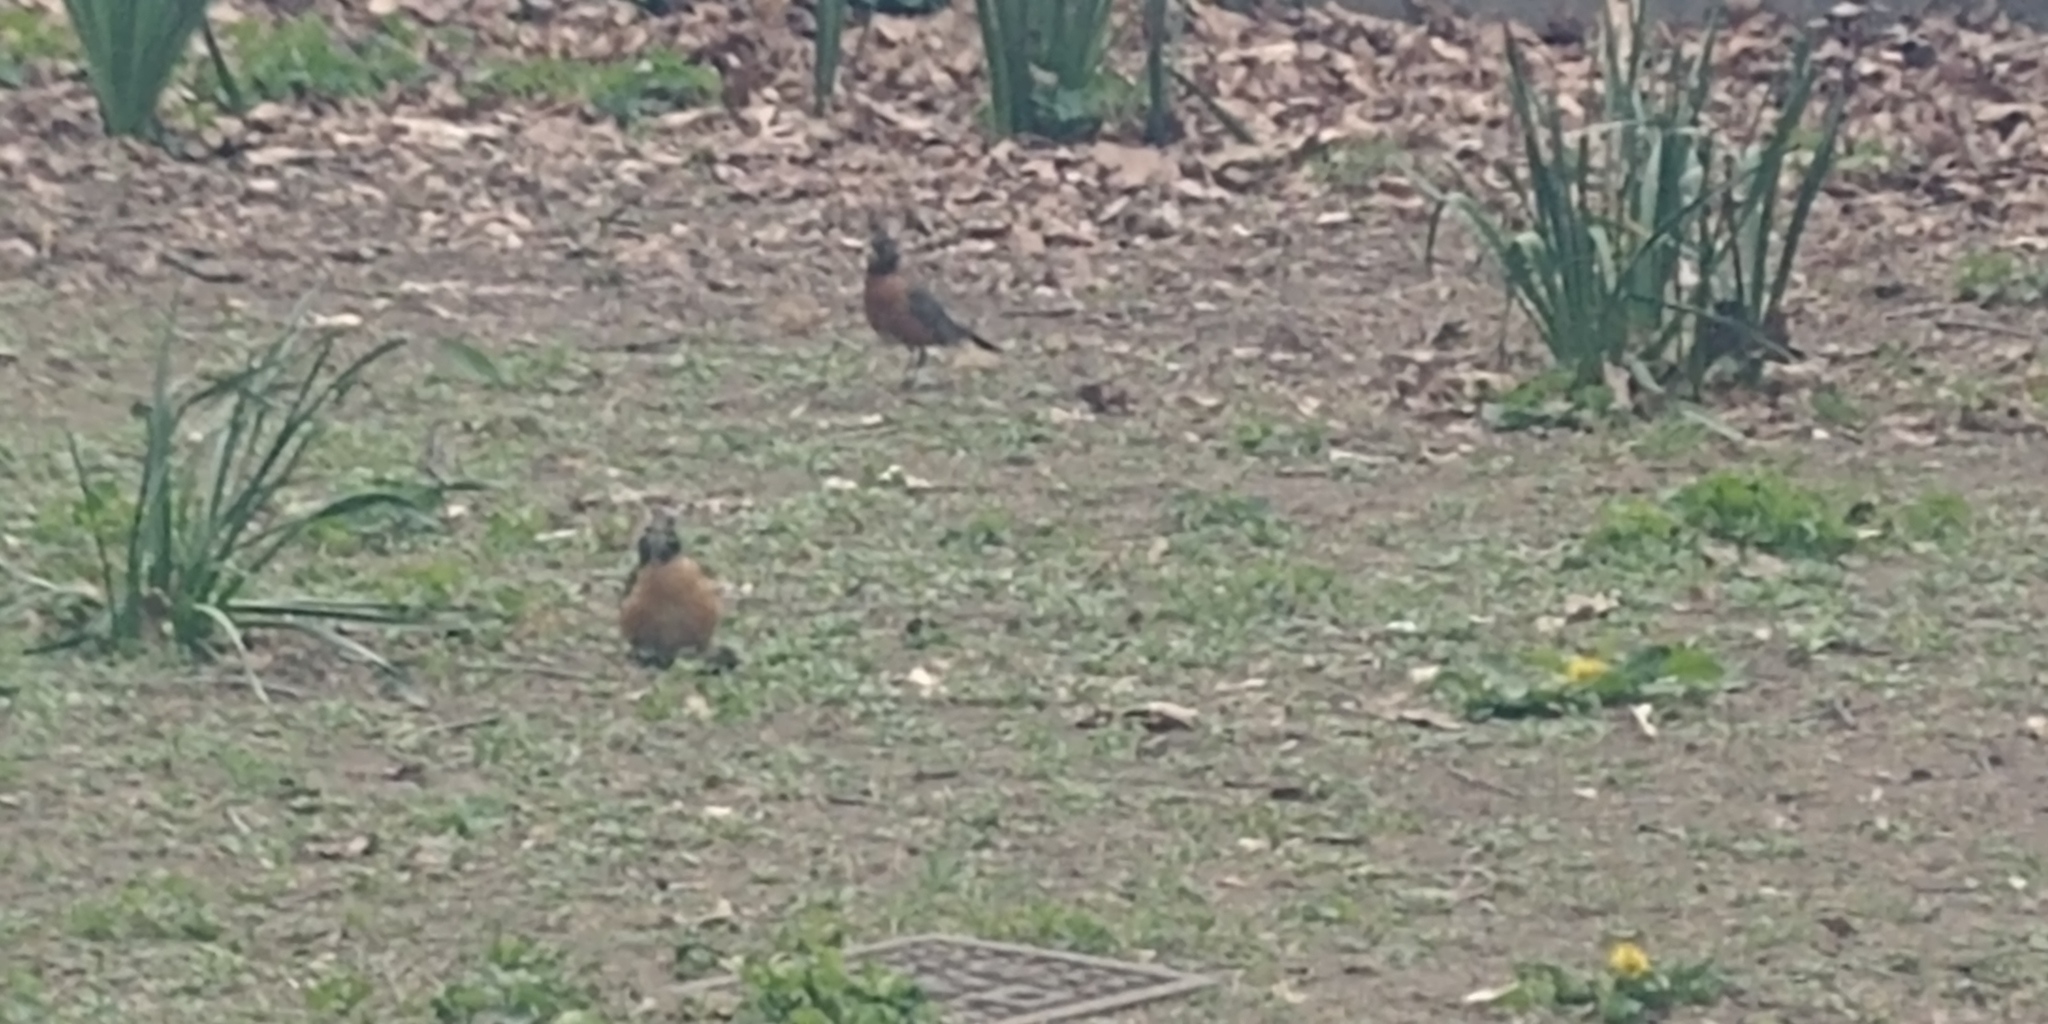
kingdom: Animalia
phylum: Chordata
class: Aves
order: Passeriformes
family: Turdidae
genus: Turdus
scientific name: Turdus migratorius
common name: American robin
